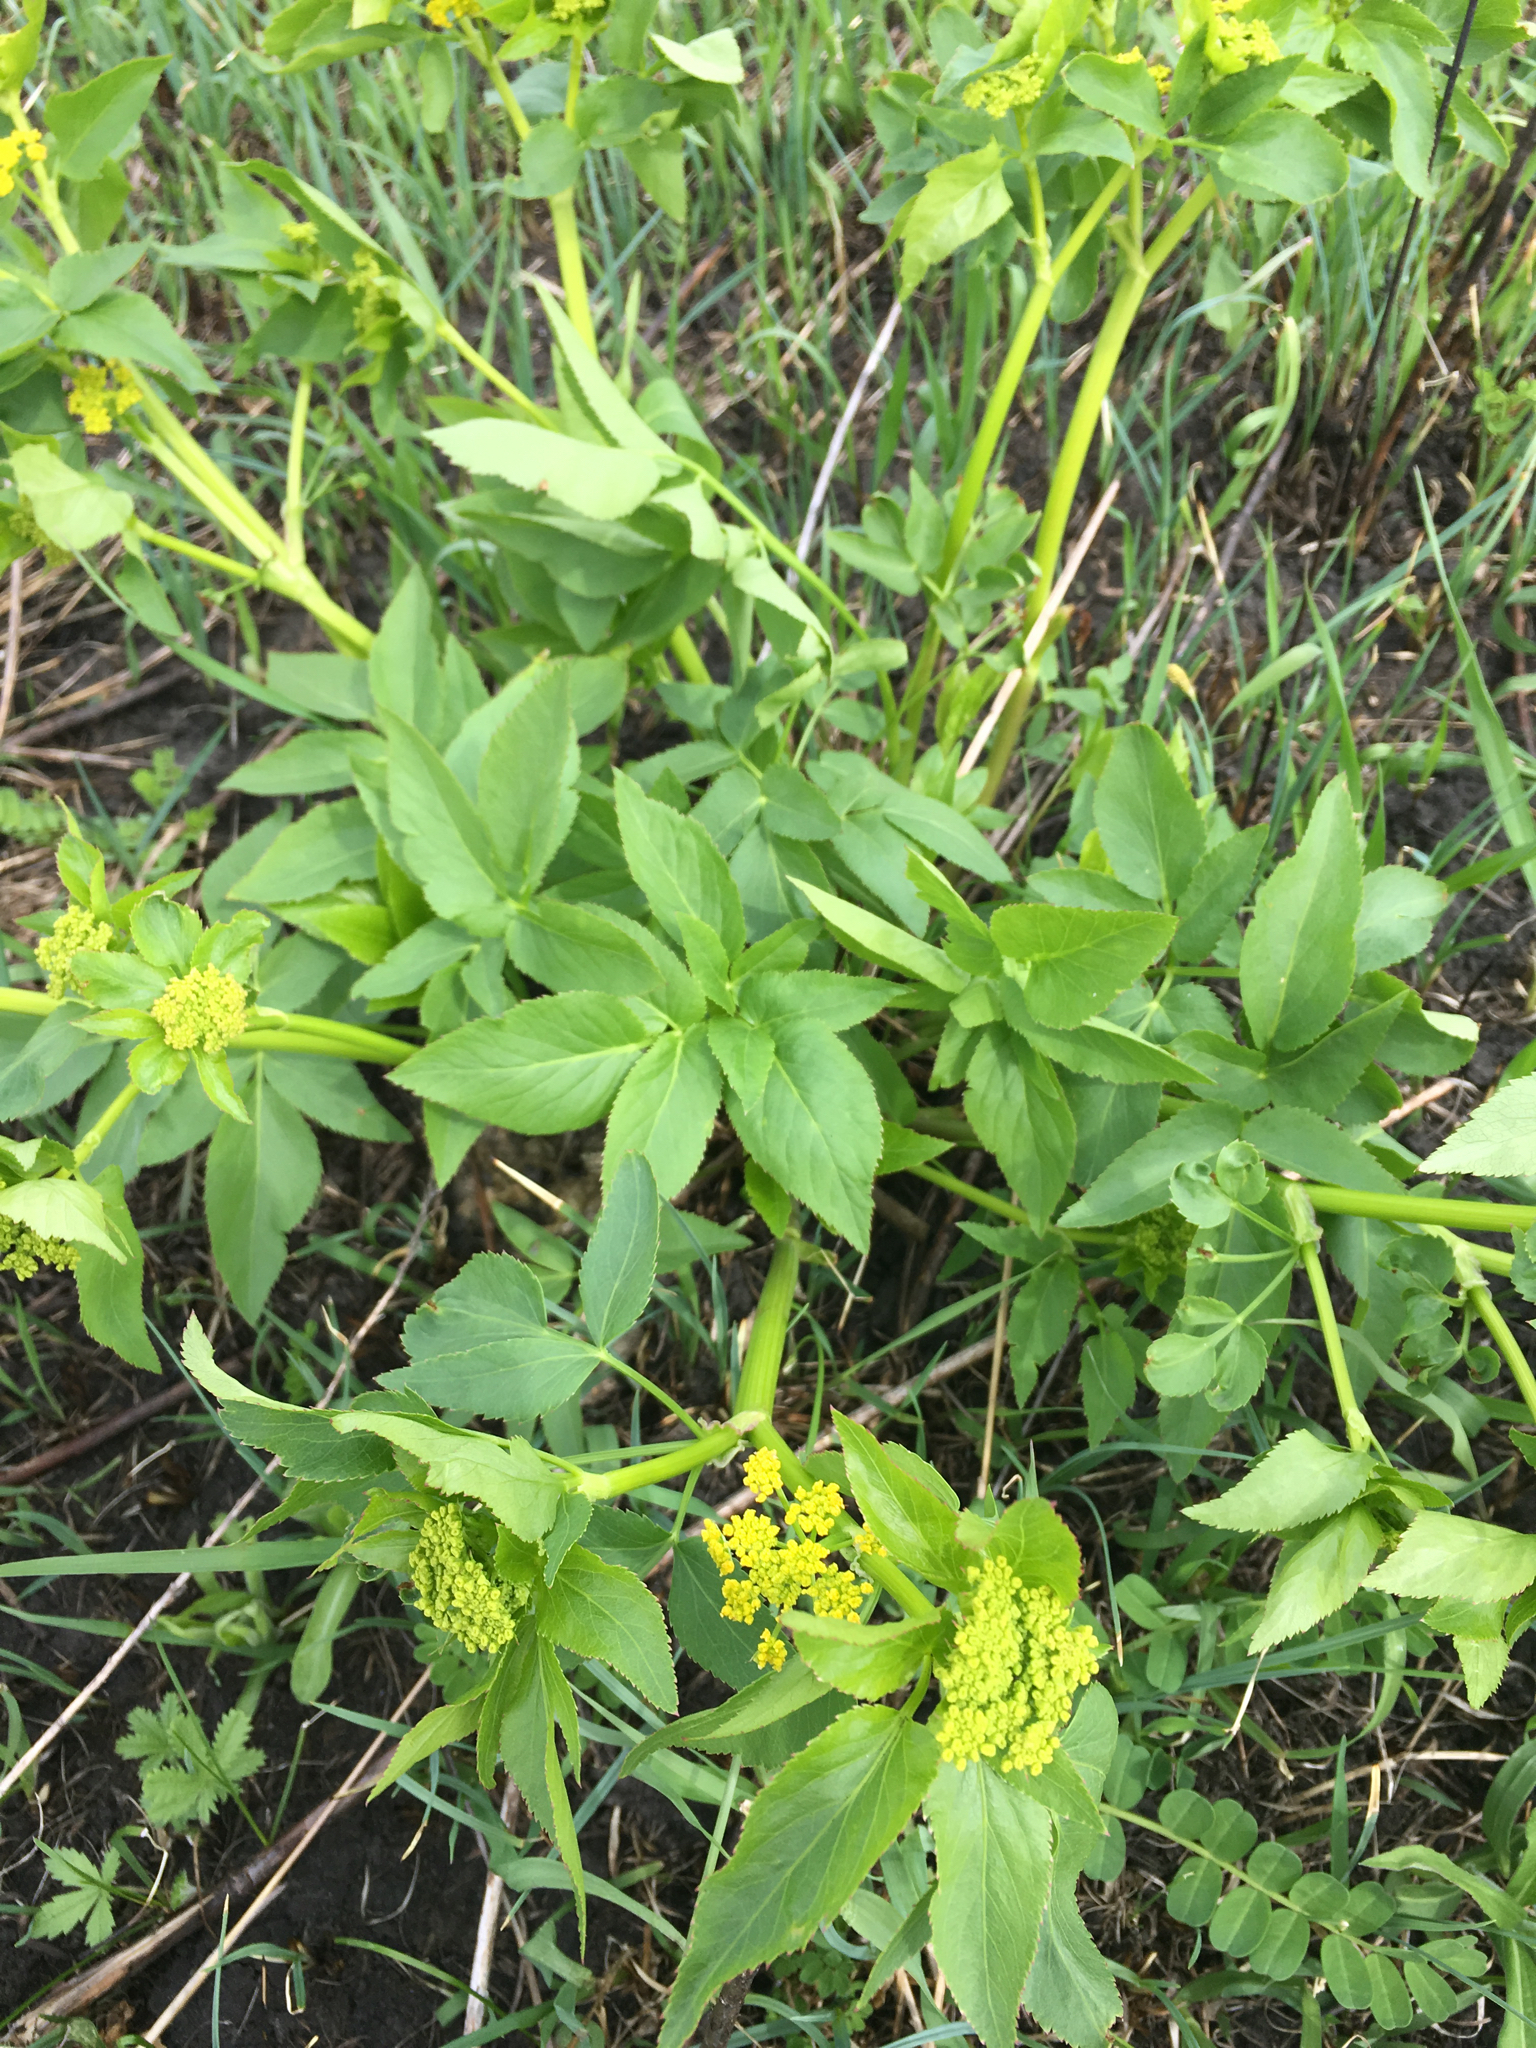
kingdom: Plantae
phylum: Tracheophyta
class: Magnoliopsida
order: Apiales
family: Apiaceae
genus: Zizia
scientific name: Zizia aurea
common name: Golden alexanders
